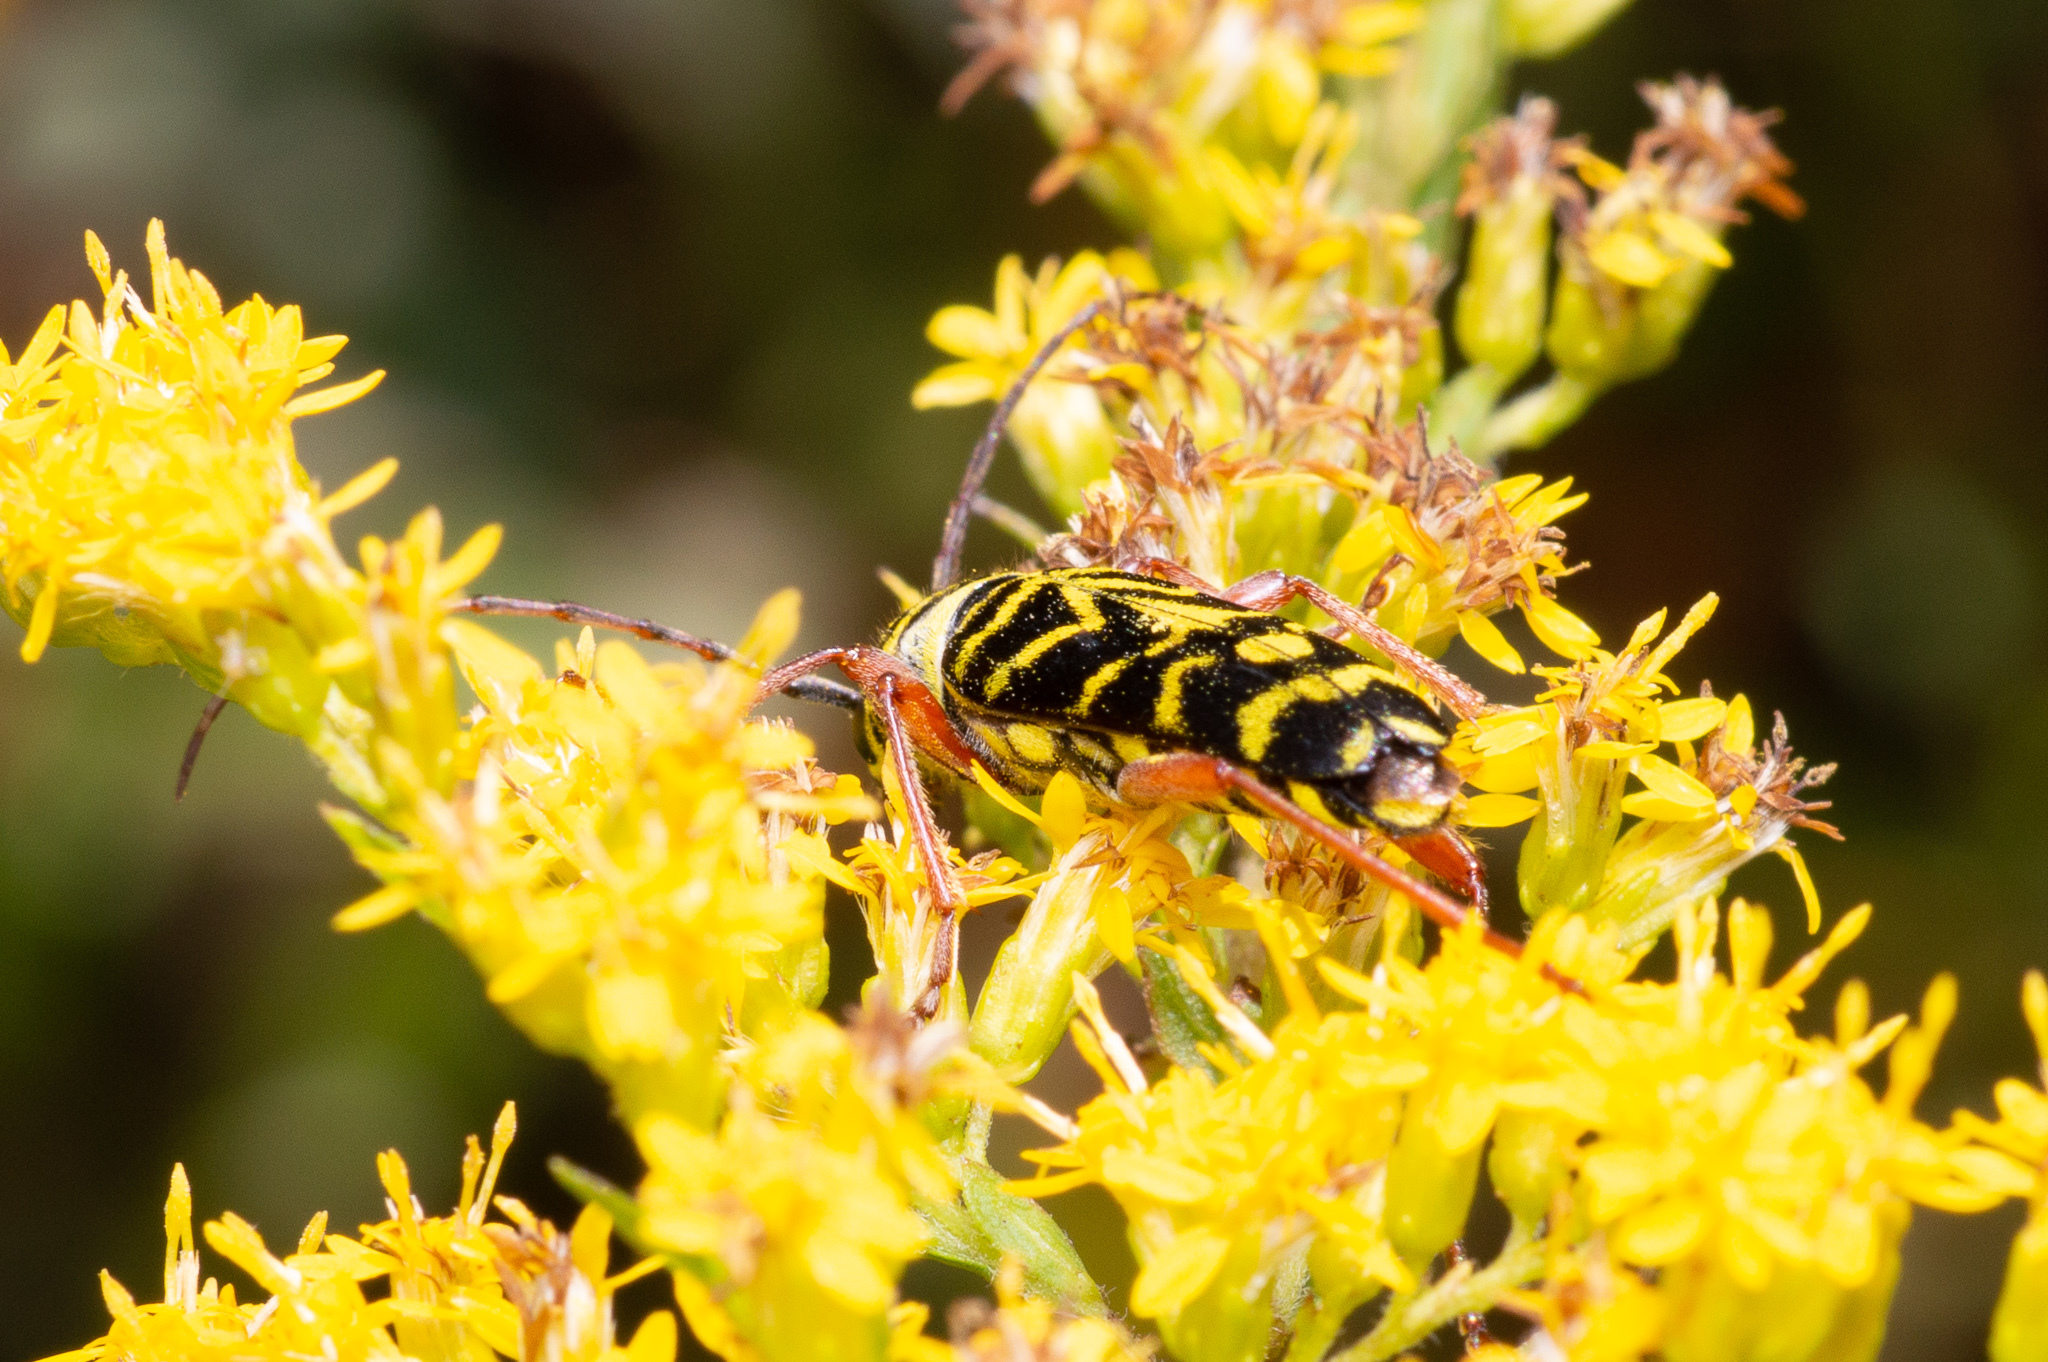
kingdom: Animalia
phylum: Arthropoda
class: Insecta
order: Coleoptera
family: Cerambycidae
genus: Megacyllene
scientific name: Megacyllene robiniae
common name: Locust borer
